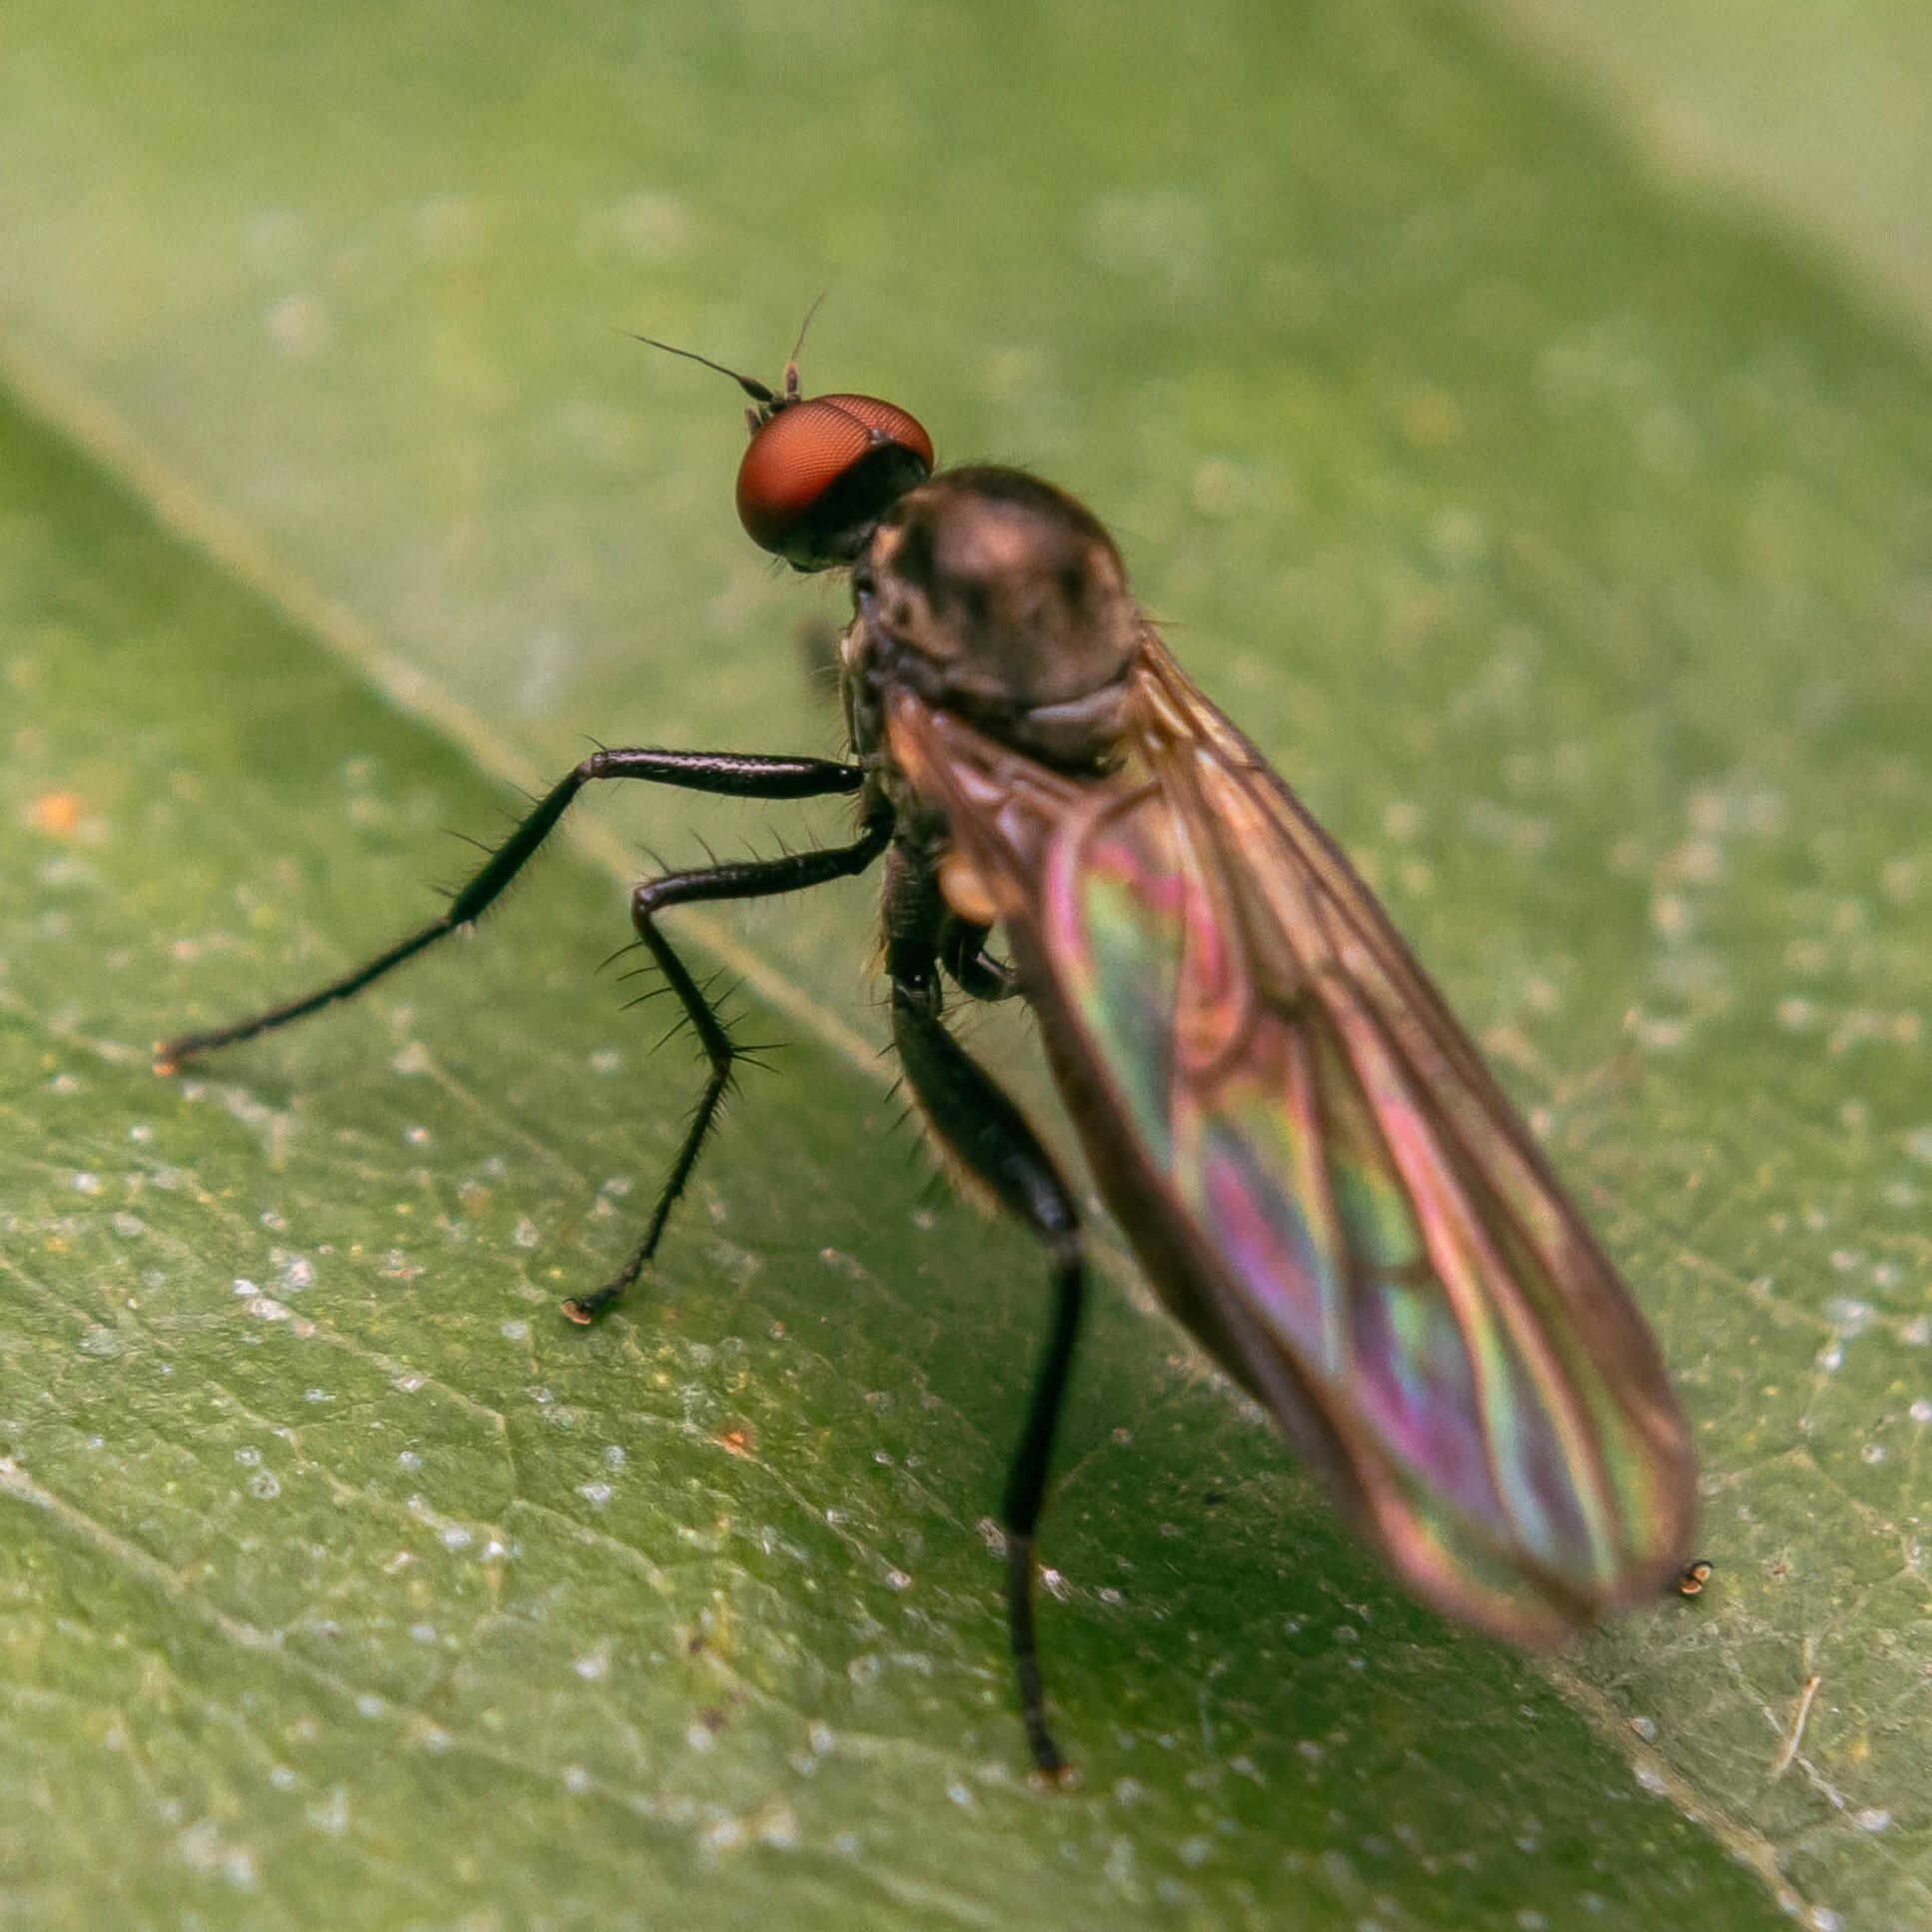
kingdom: Animalia
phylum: Arthropoda
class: Insecta
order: Diptera
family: Hybotidae
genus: Hybos
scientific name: Hybos culiciformis
